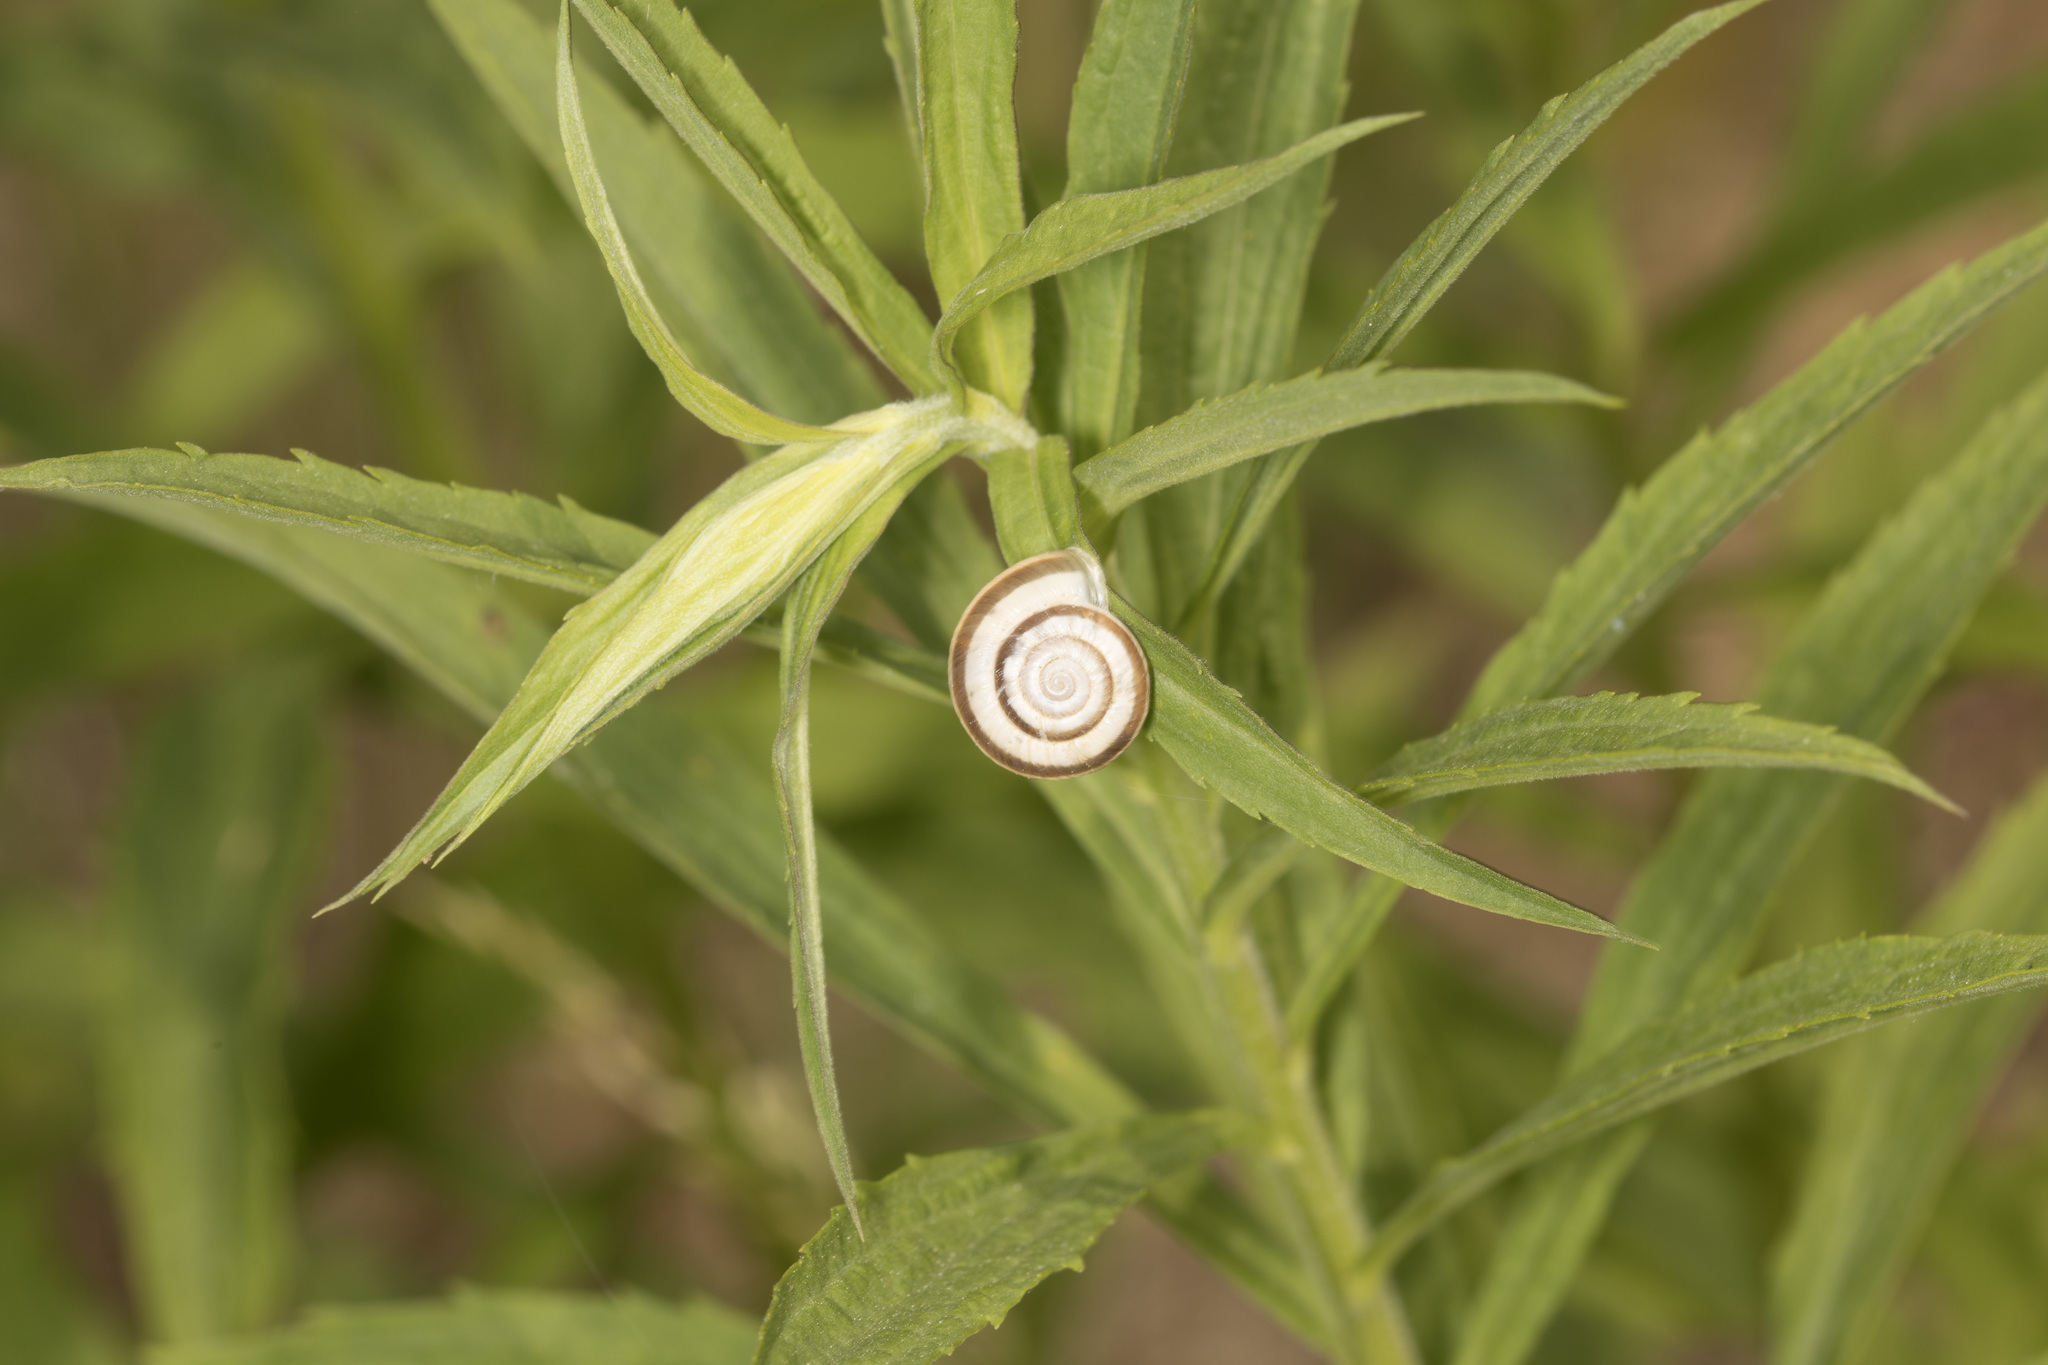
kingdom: Animalia
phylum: Mollusca
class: Gastropoda
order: Stylommatophora
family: Geomitridae
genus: Xerolenta
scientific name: Xerolenta obvia
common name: White heath snail
